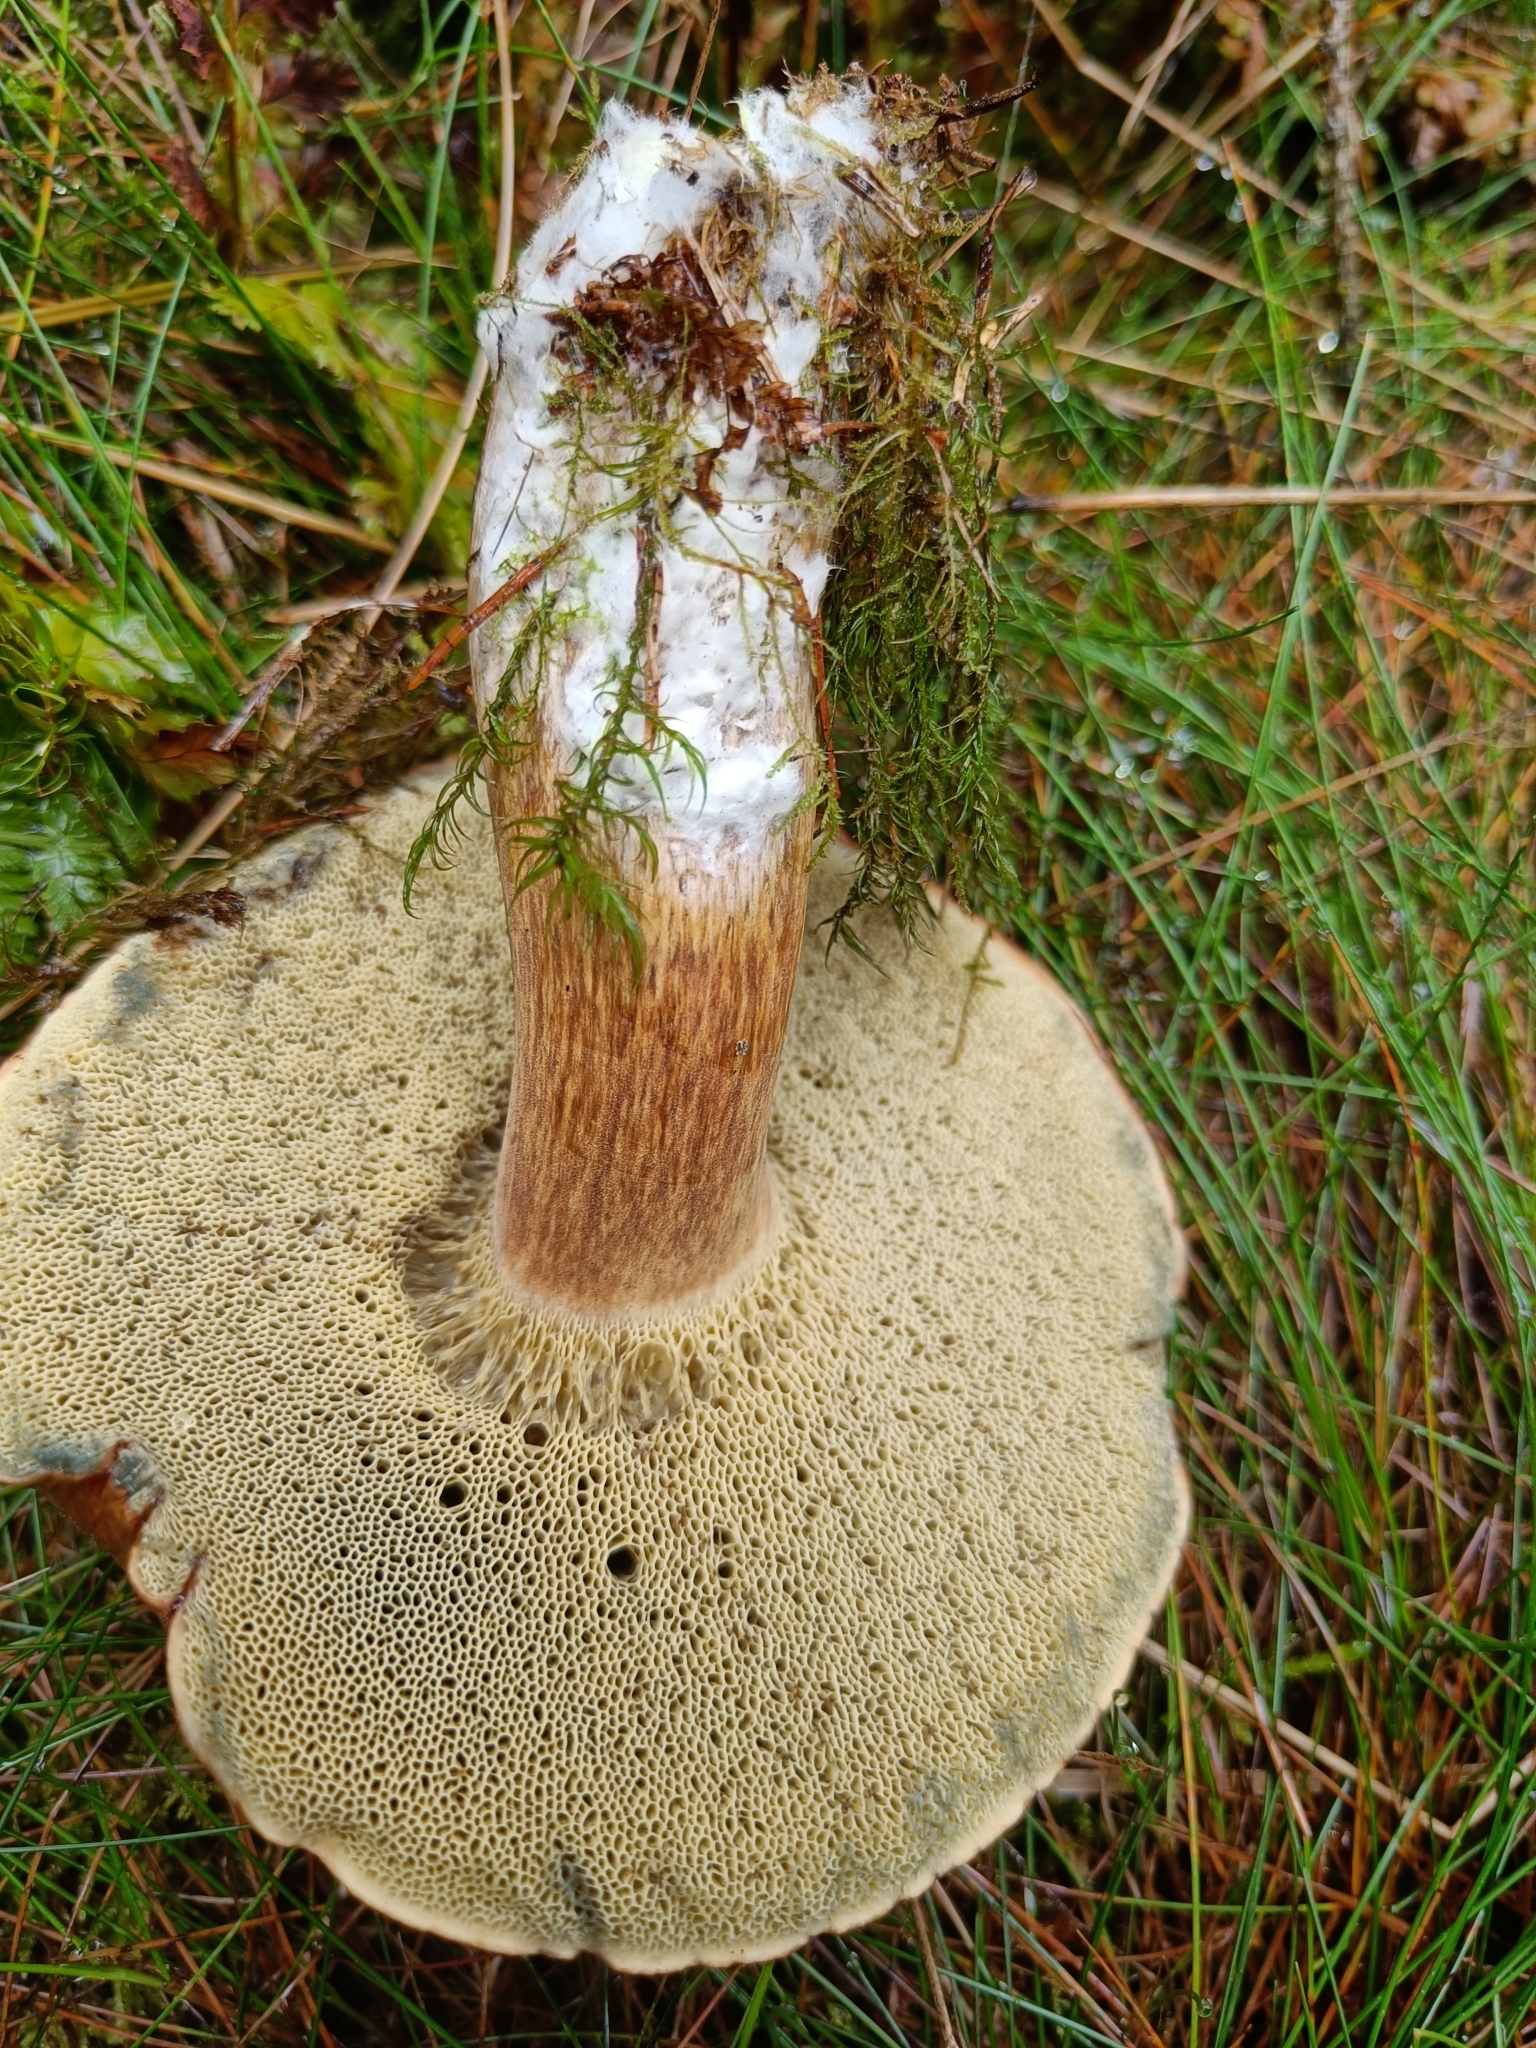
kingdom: Fungi
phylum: Basidiomycota
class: Agaricomycetes
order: Boletales
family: Boletaceae
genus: Imleria
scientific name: Imleria badia
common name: Bay bolete
